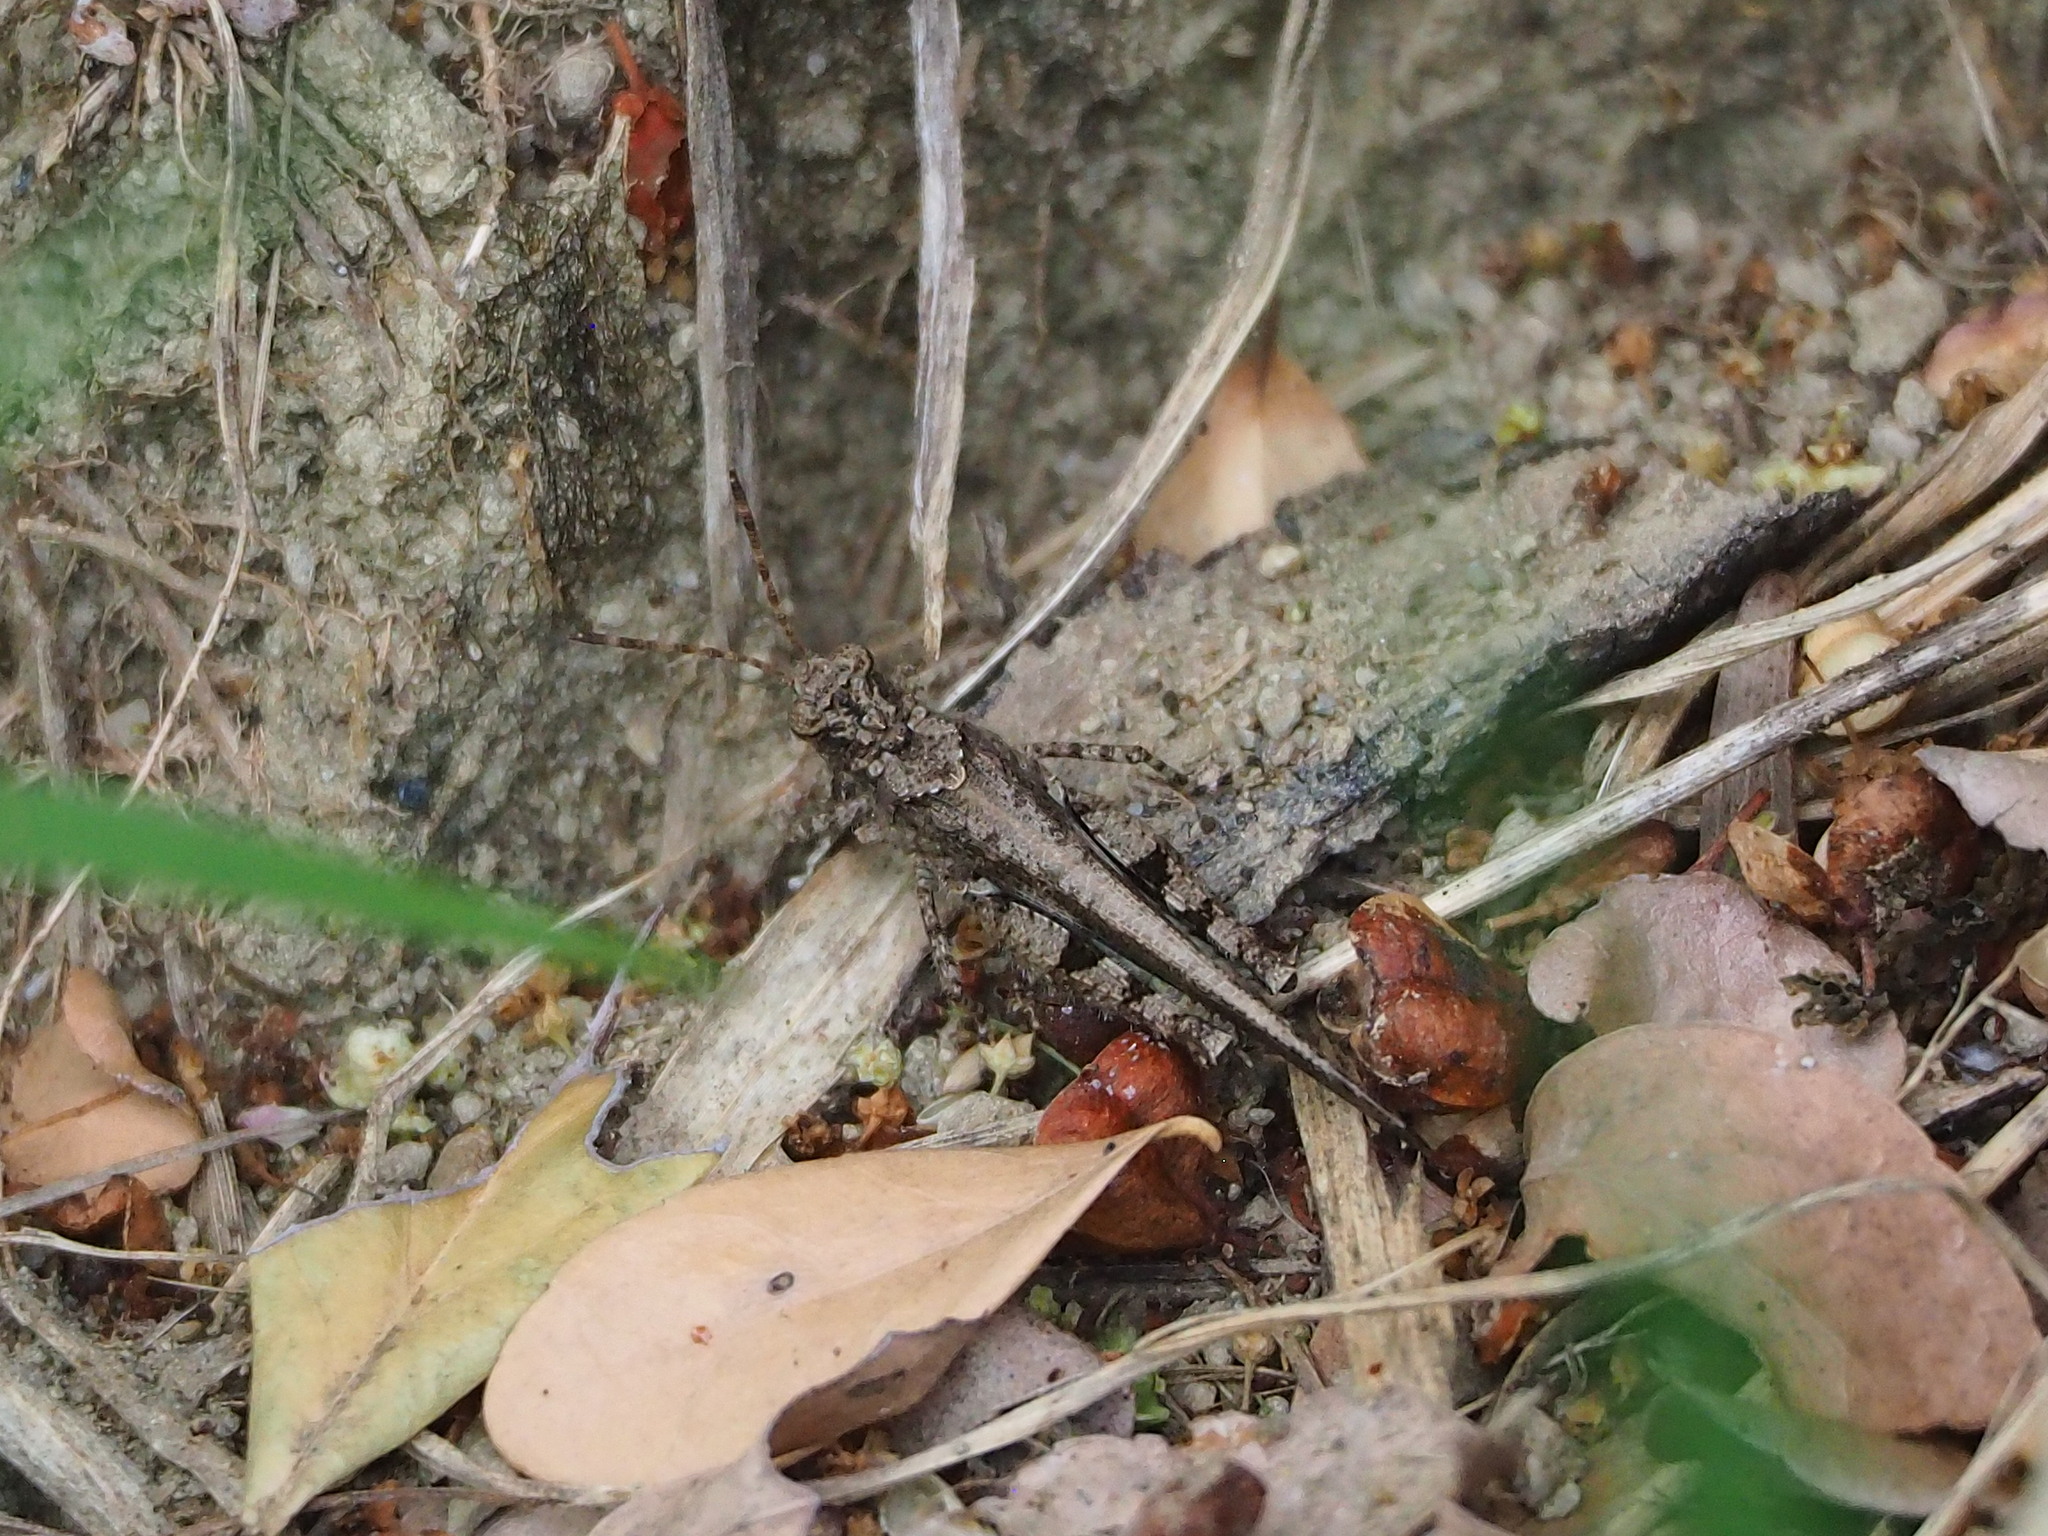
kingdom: Animalia
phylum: Arthropoda
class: Insecta
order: Orthoptera
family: Acrididae
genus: Trilophidia
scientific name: Trilophidia annulata
